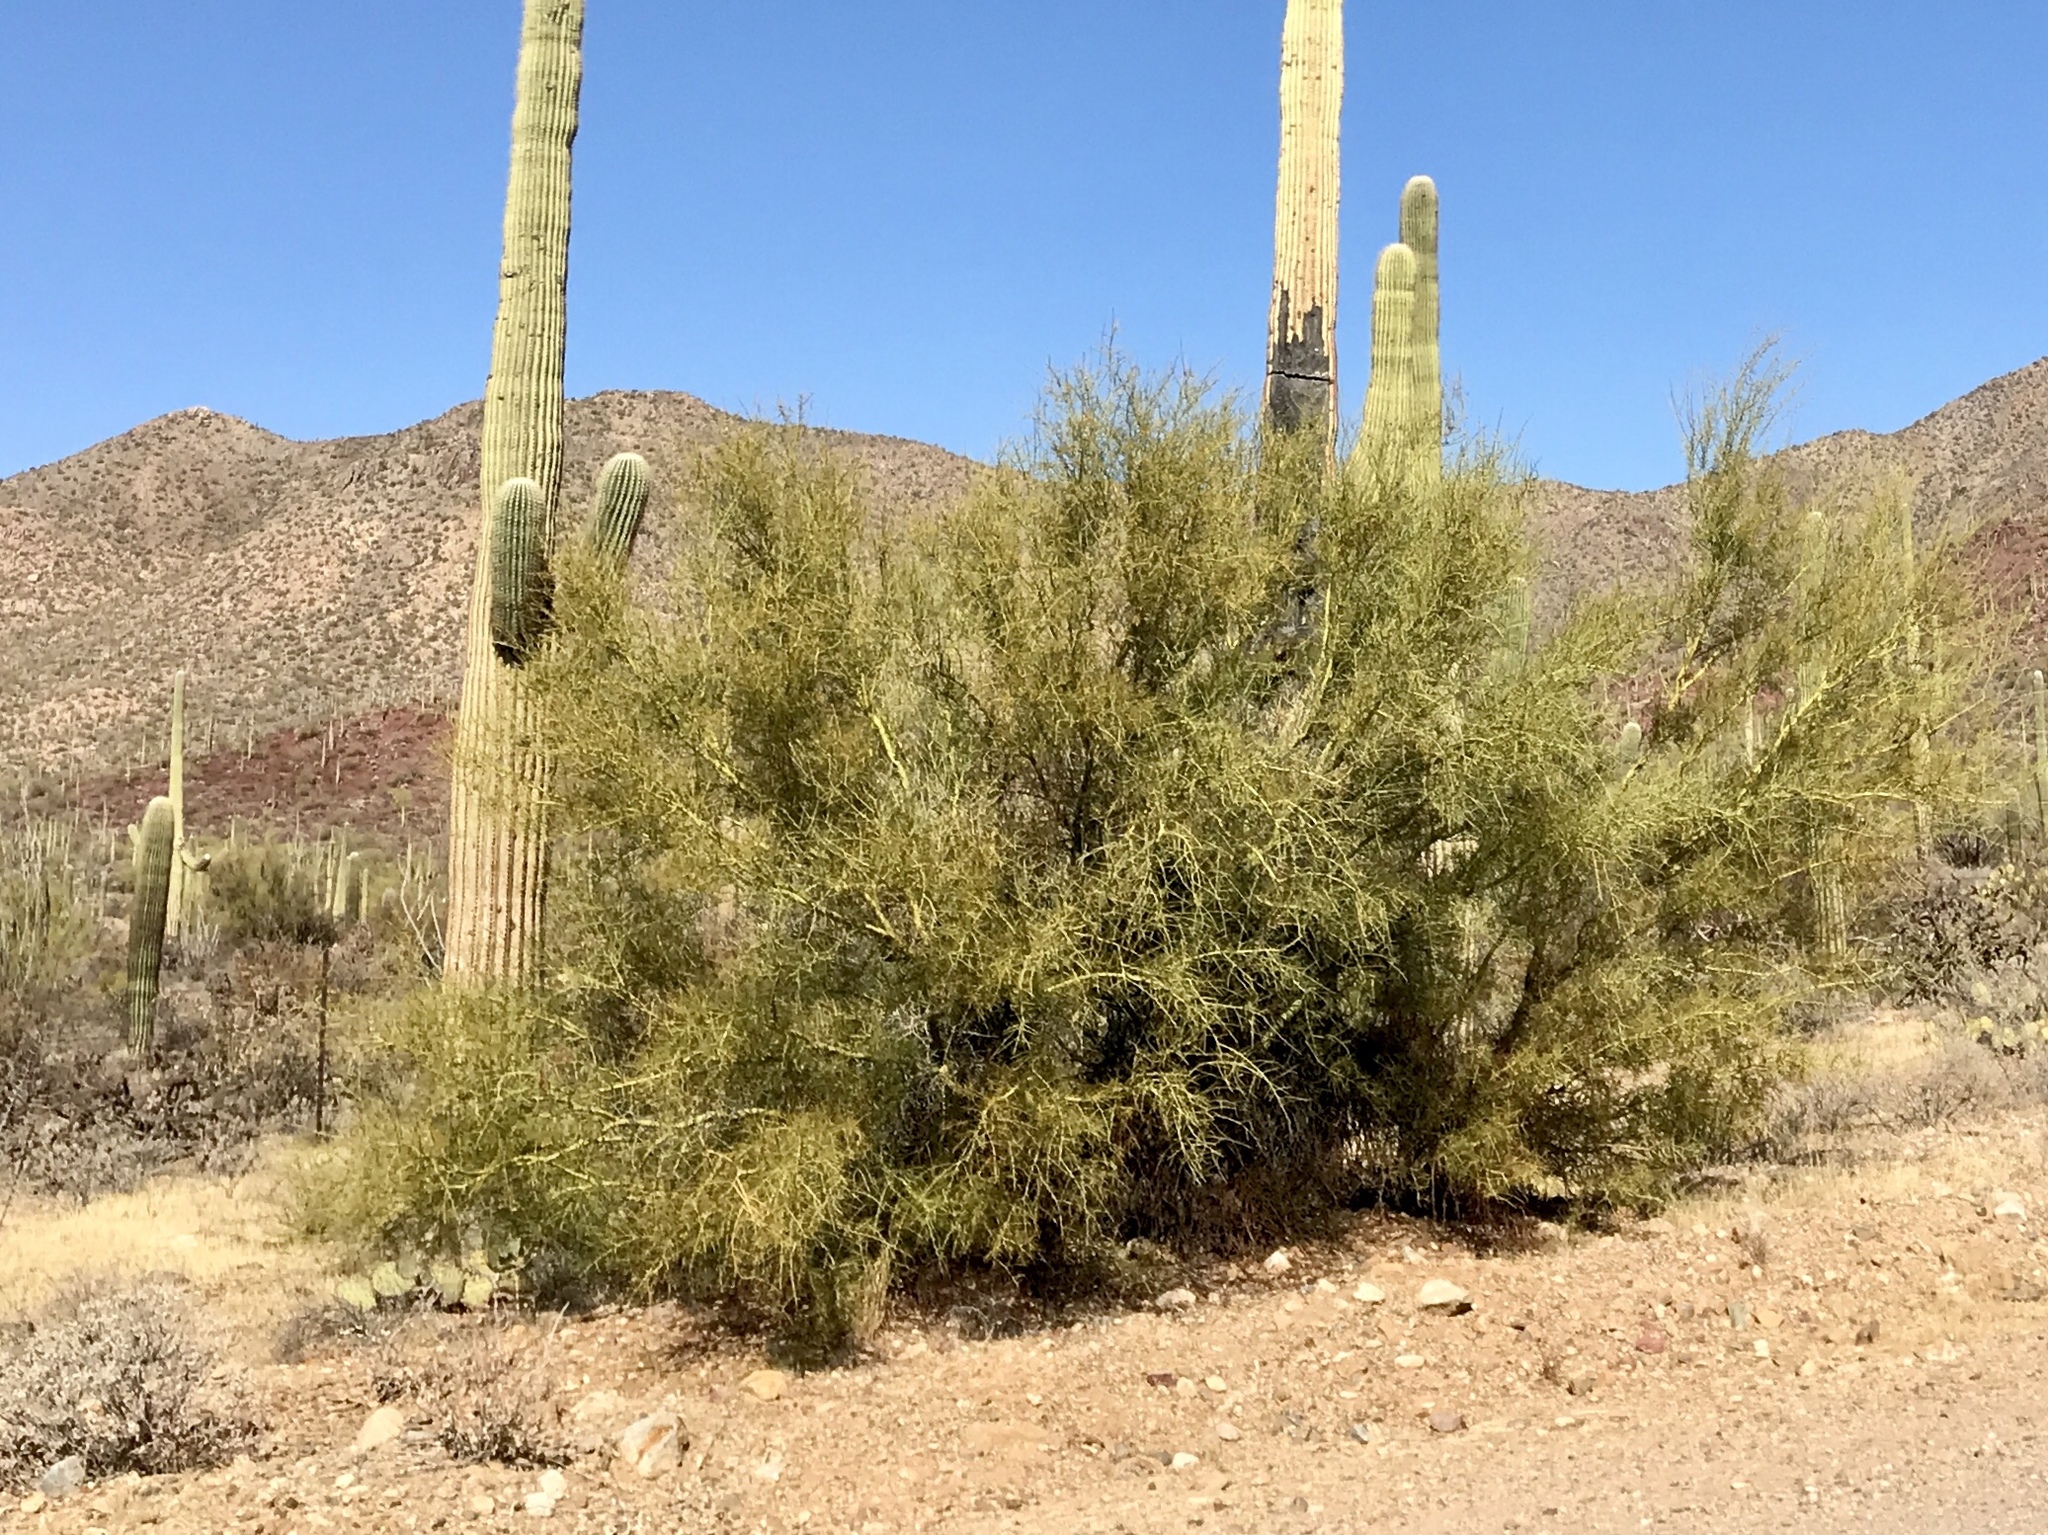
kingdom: Plantae
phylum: Tracheophyta
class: Magnoliopsida
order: Fabales
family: Fabaceae
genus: Parkinsonia
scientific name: Parkinsonia microphylla
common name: Yellow paloverde
